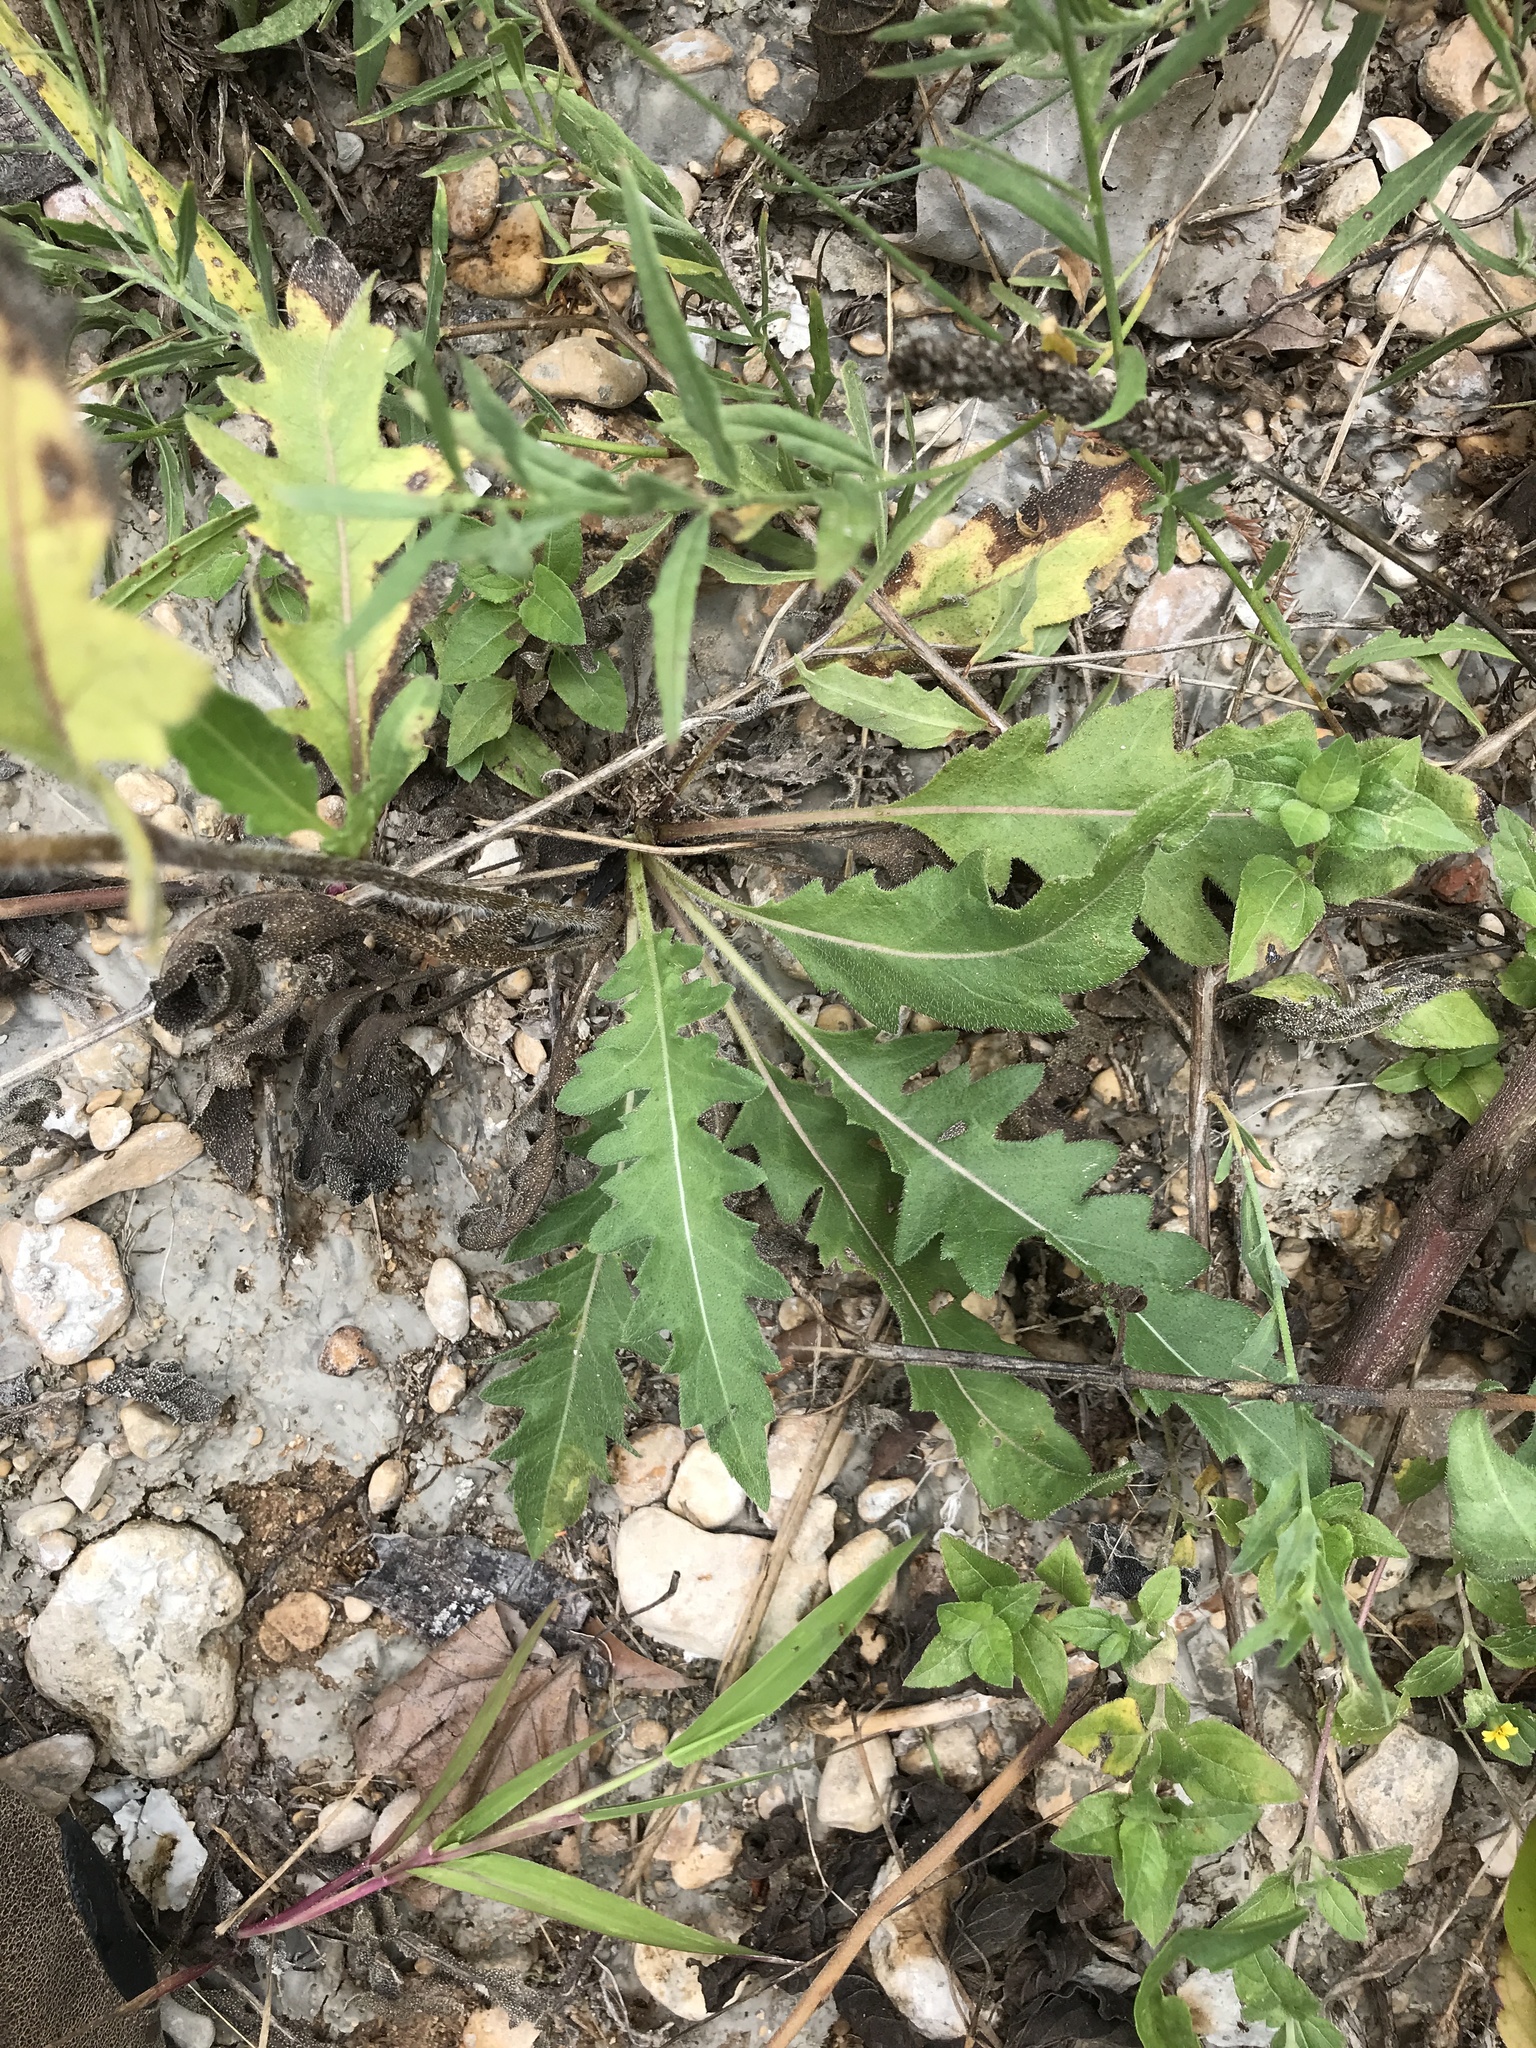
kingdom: Plantae
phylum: Tracheophyta
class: Magnoliopsida
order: Asterales
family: Asteraceae
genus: Engelmannia
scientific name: Engelmannia peristenia
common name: Engelmann's daisy
